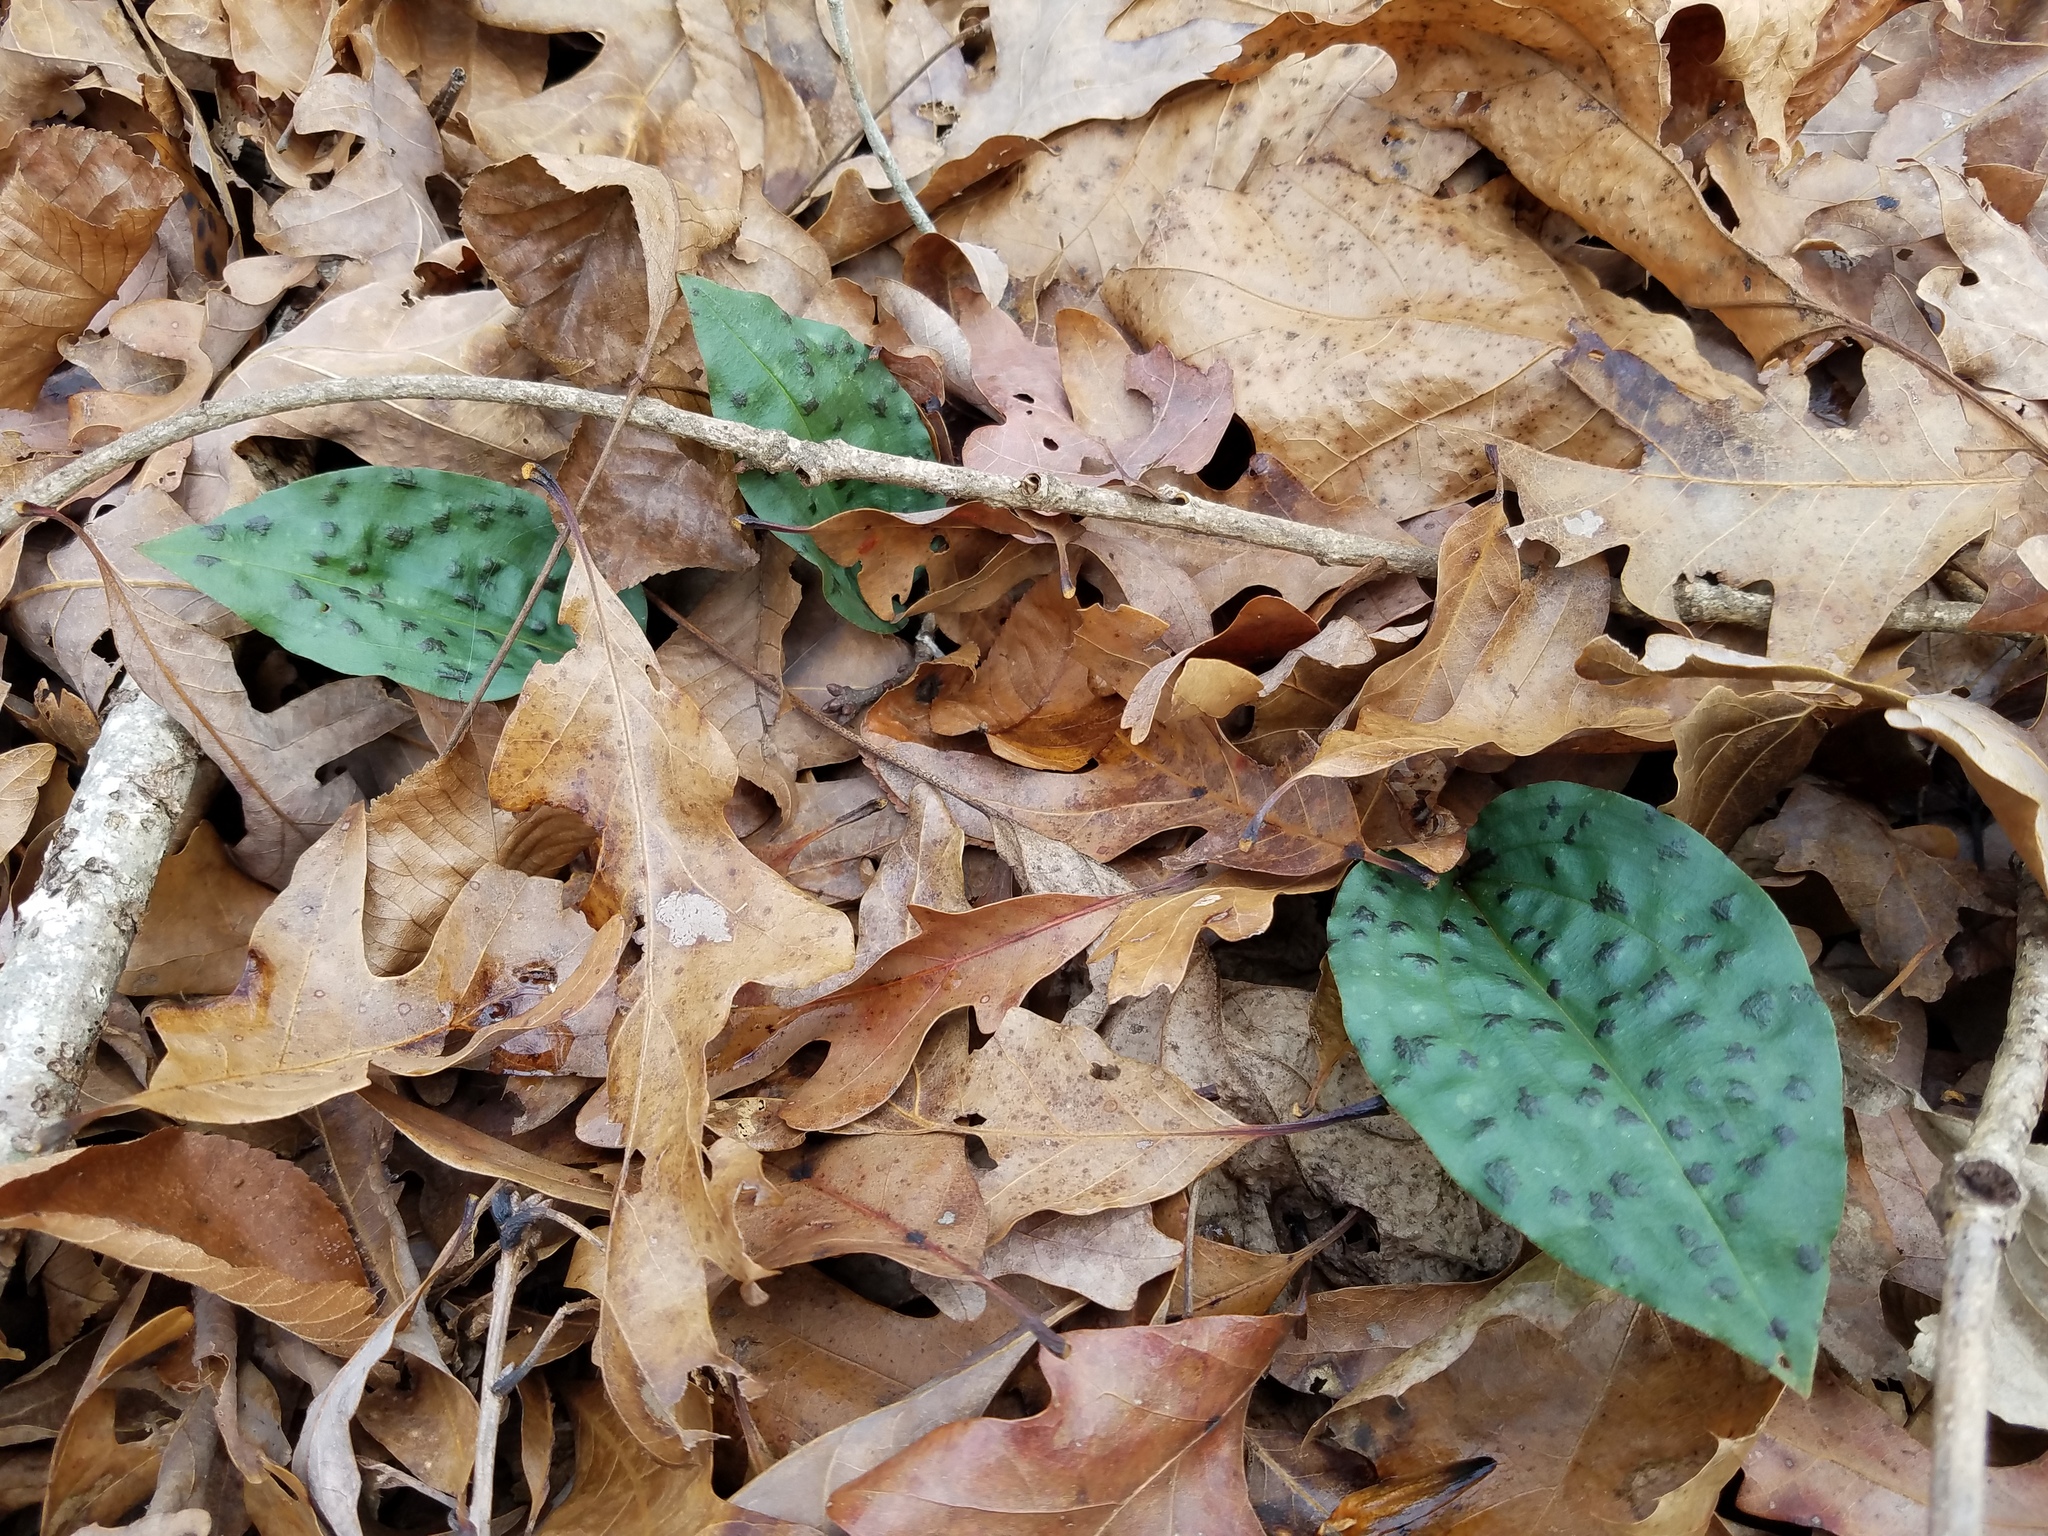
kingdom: Plantae
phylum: Tracheophyta
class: Liliopsida
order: Asparagales
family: Orchidaceae
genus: Tipularia
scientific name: Tipularia discolor
